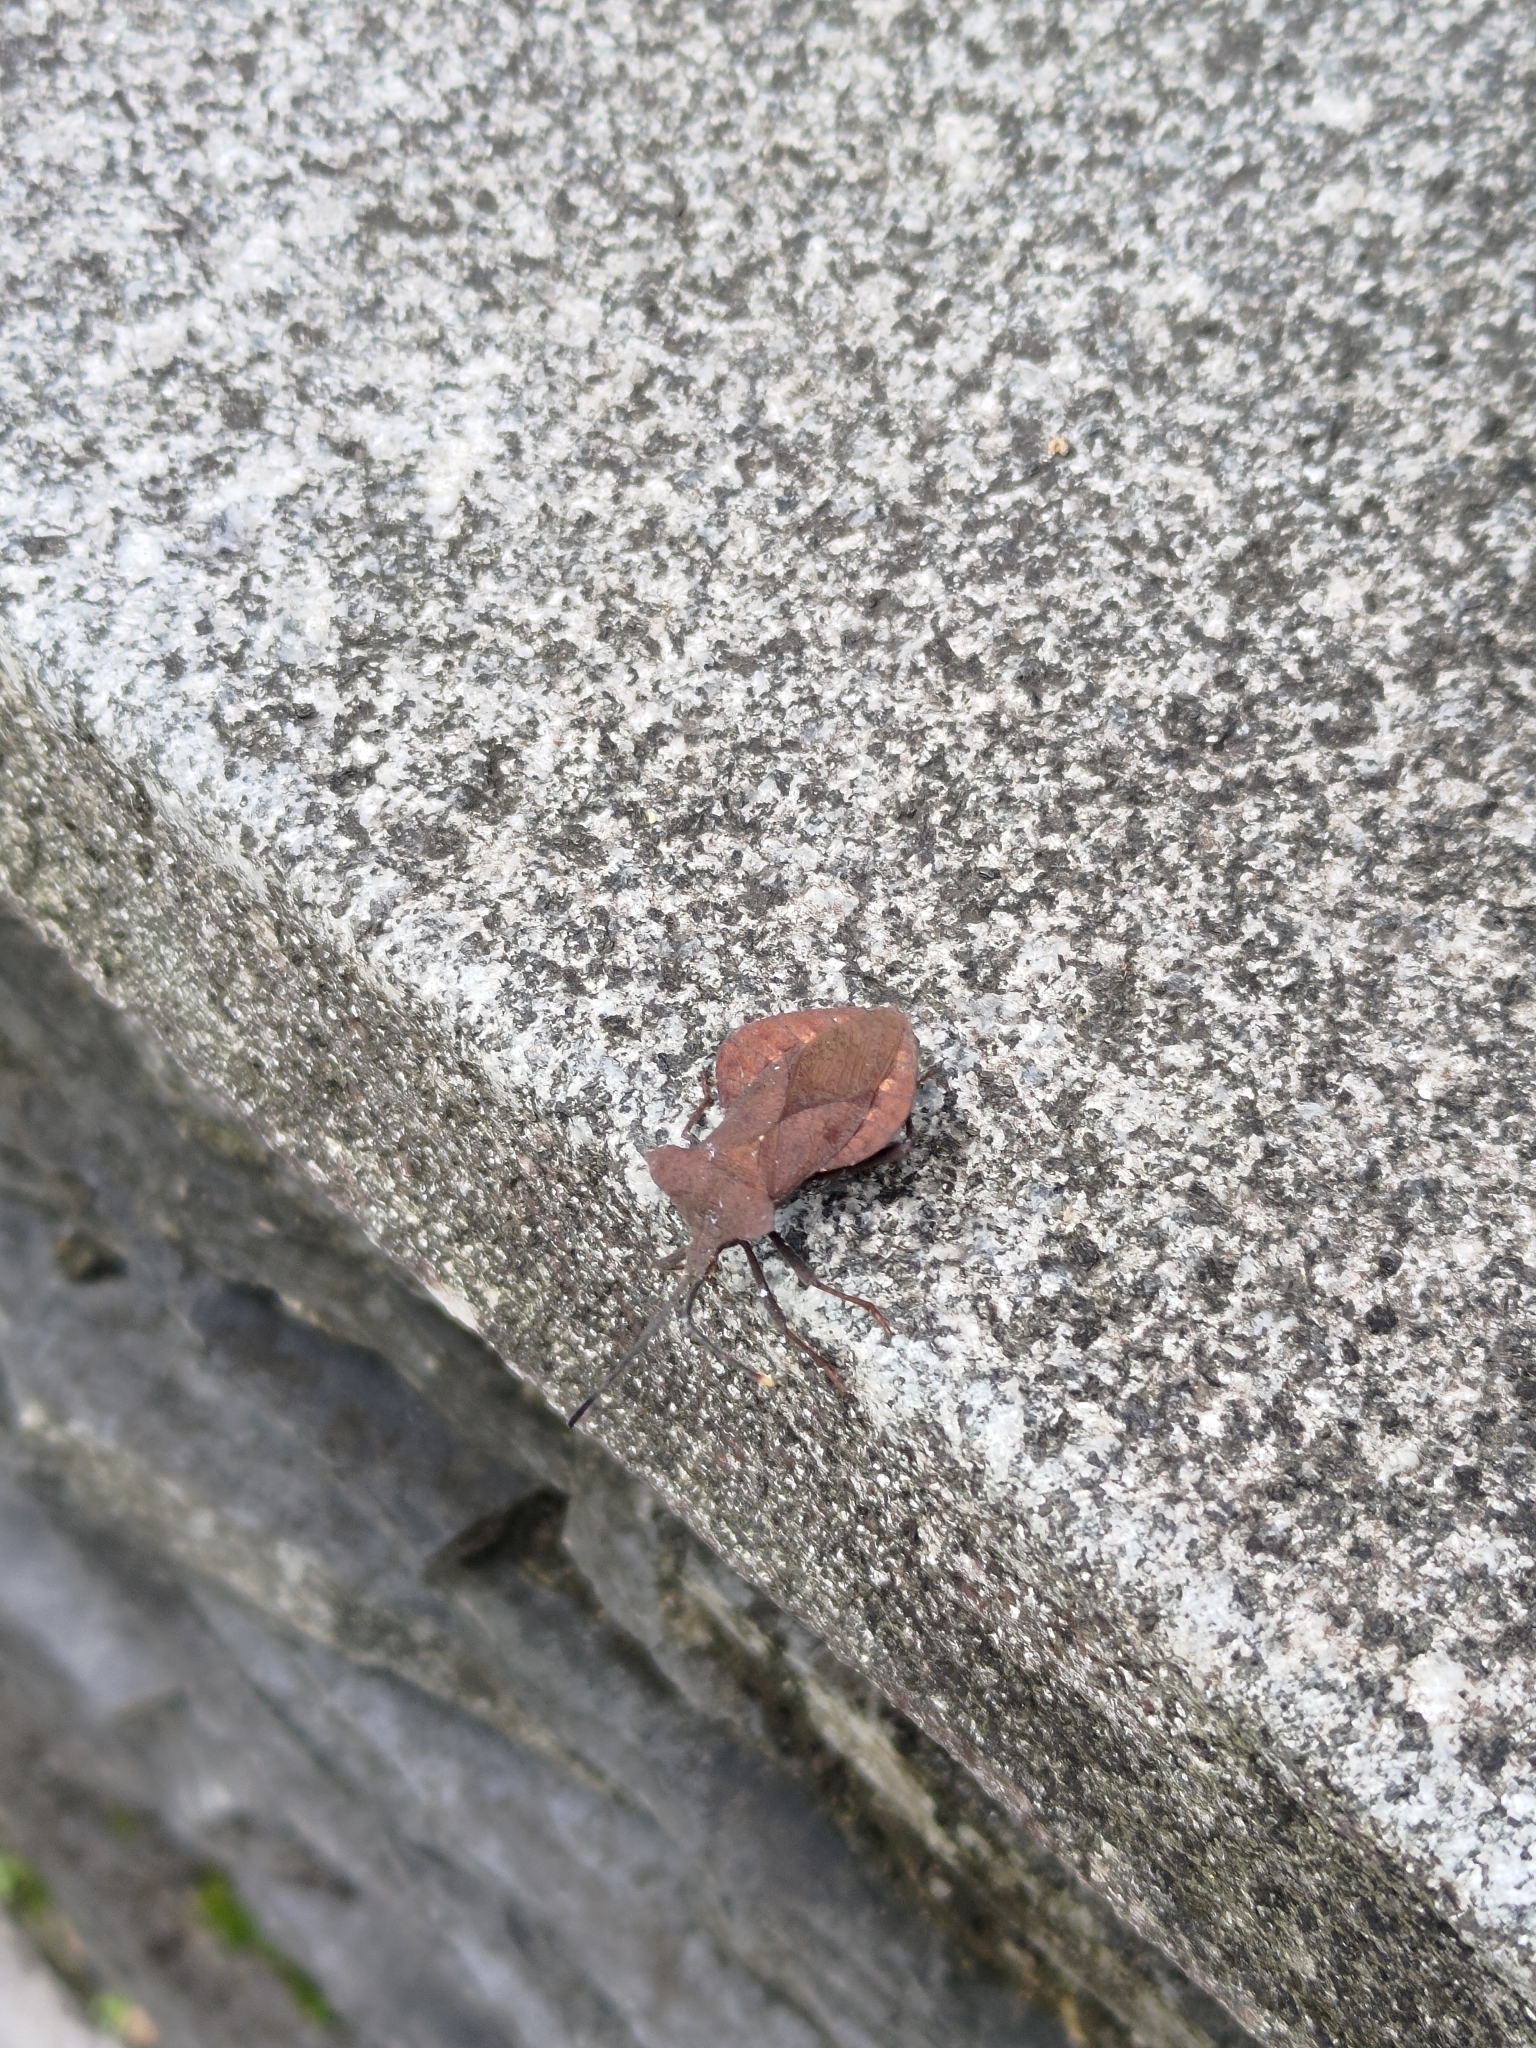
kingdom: Animalia
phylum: Arthropoda
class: Insecta
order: Hemiptera
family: Coreidae
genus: Dalader
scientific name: Dalader formosanus
